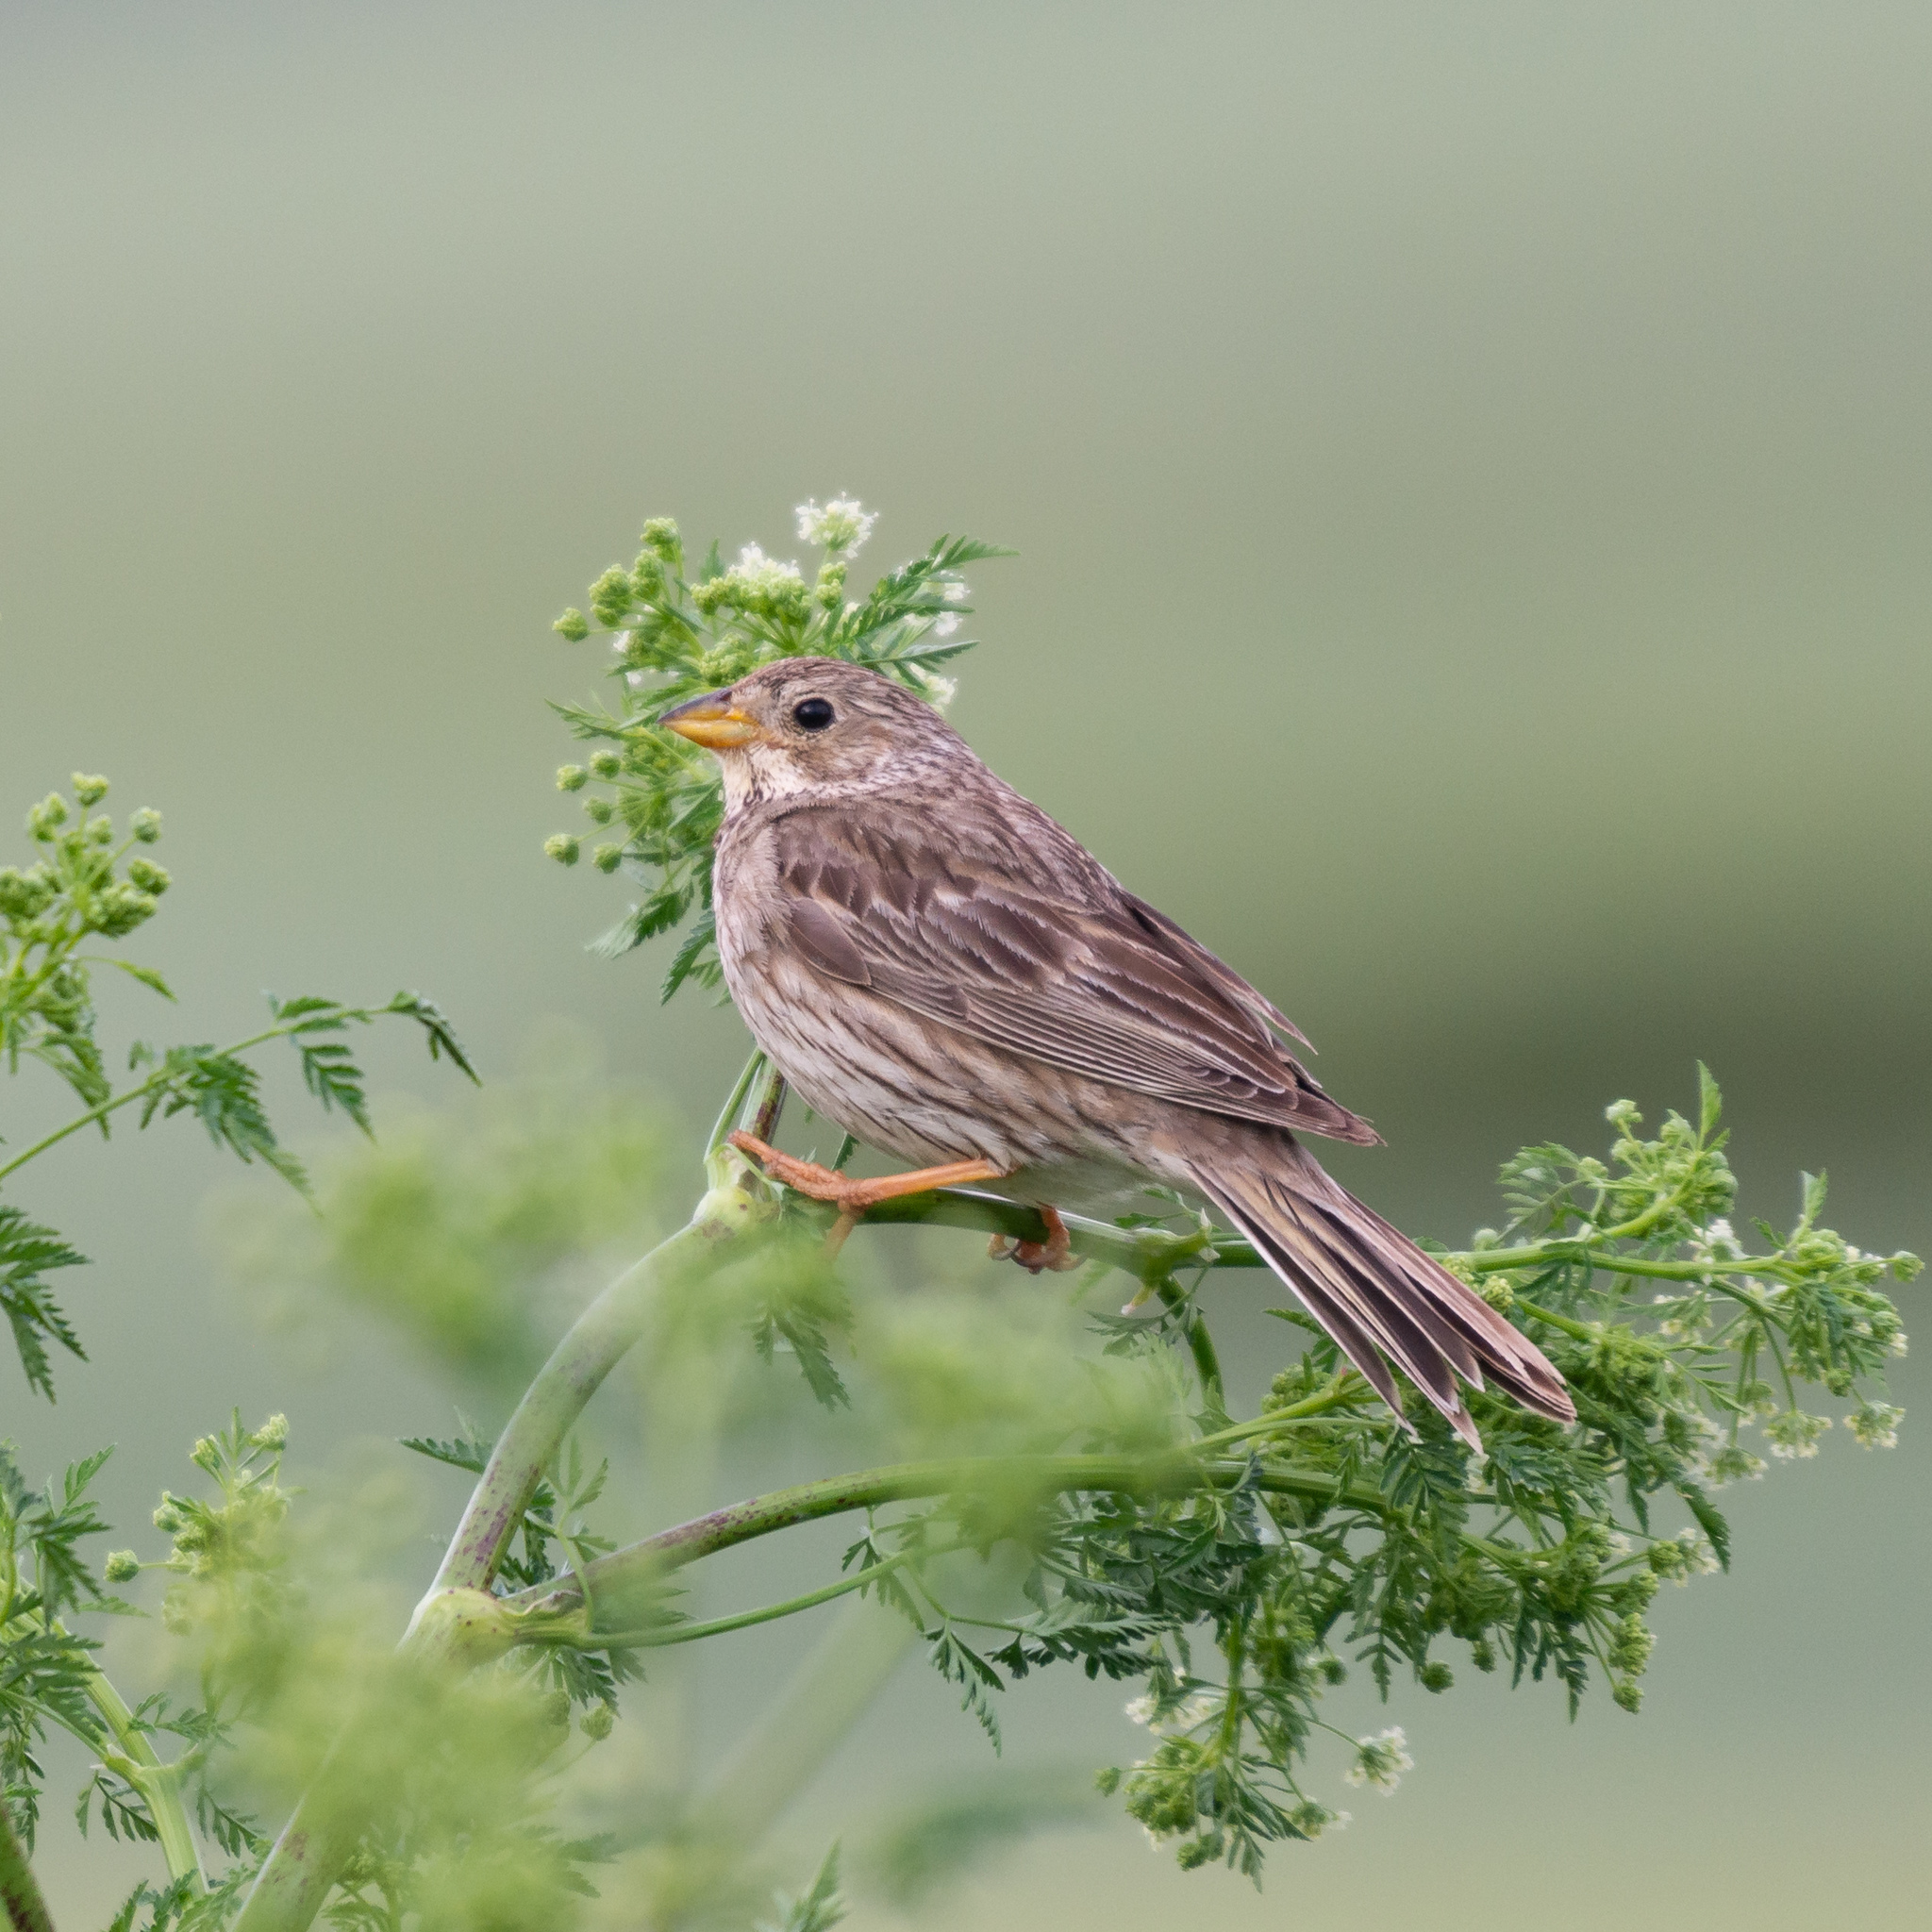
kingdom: Animalia
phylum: Chordata
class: Aves
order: Passeriformes
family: Emberizidae
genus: Emberiza
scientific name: Emberiza calandra
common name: Corn bunting
